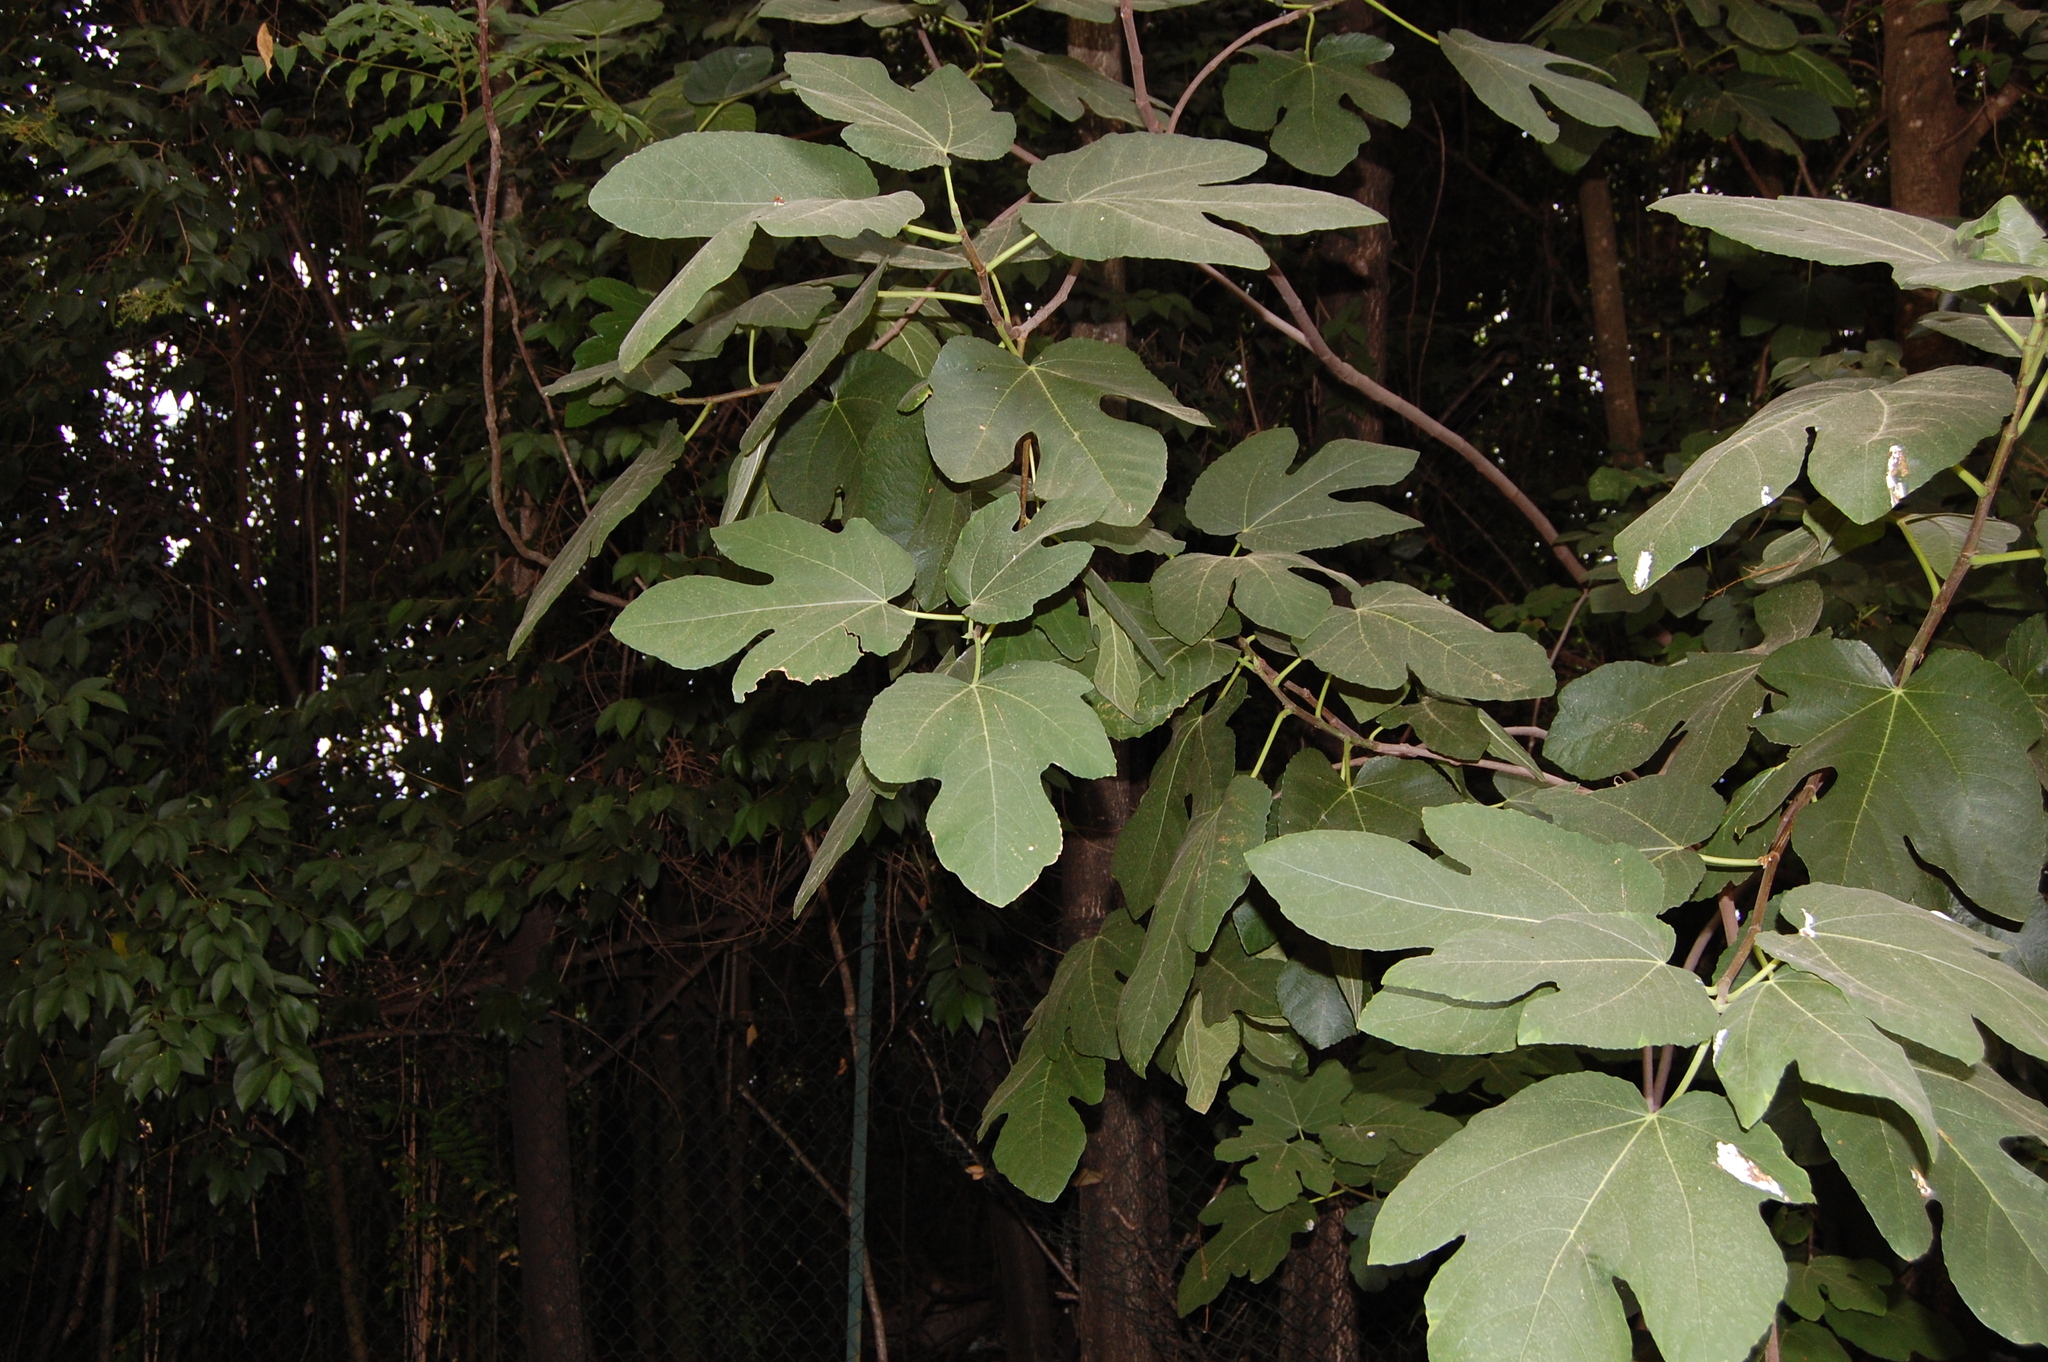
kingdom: Plantae
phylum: Tracheophyta
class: Magnoliopsida
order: Rosales
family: Moraceae
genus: Ficus
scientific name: Ficus carica
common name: Fig
